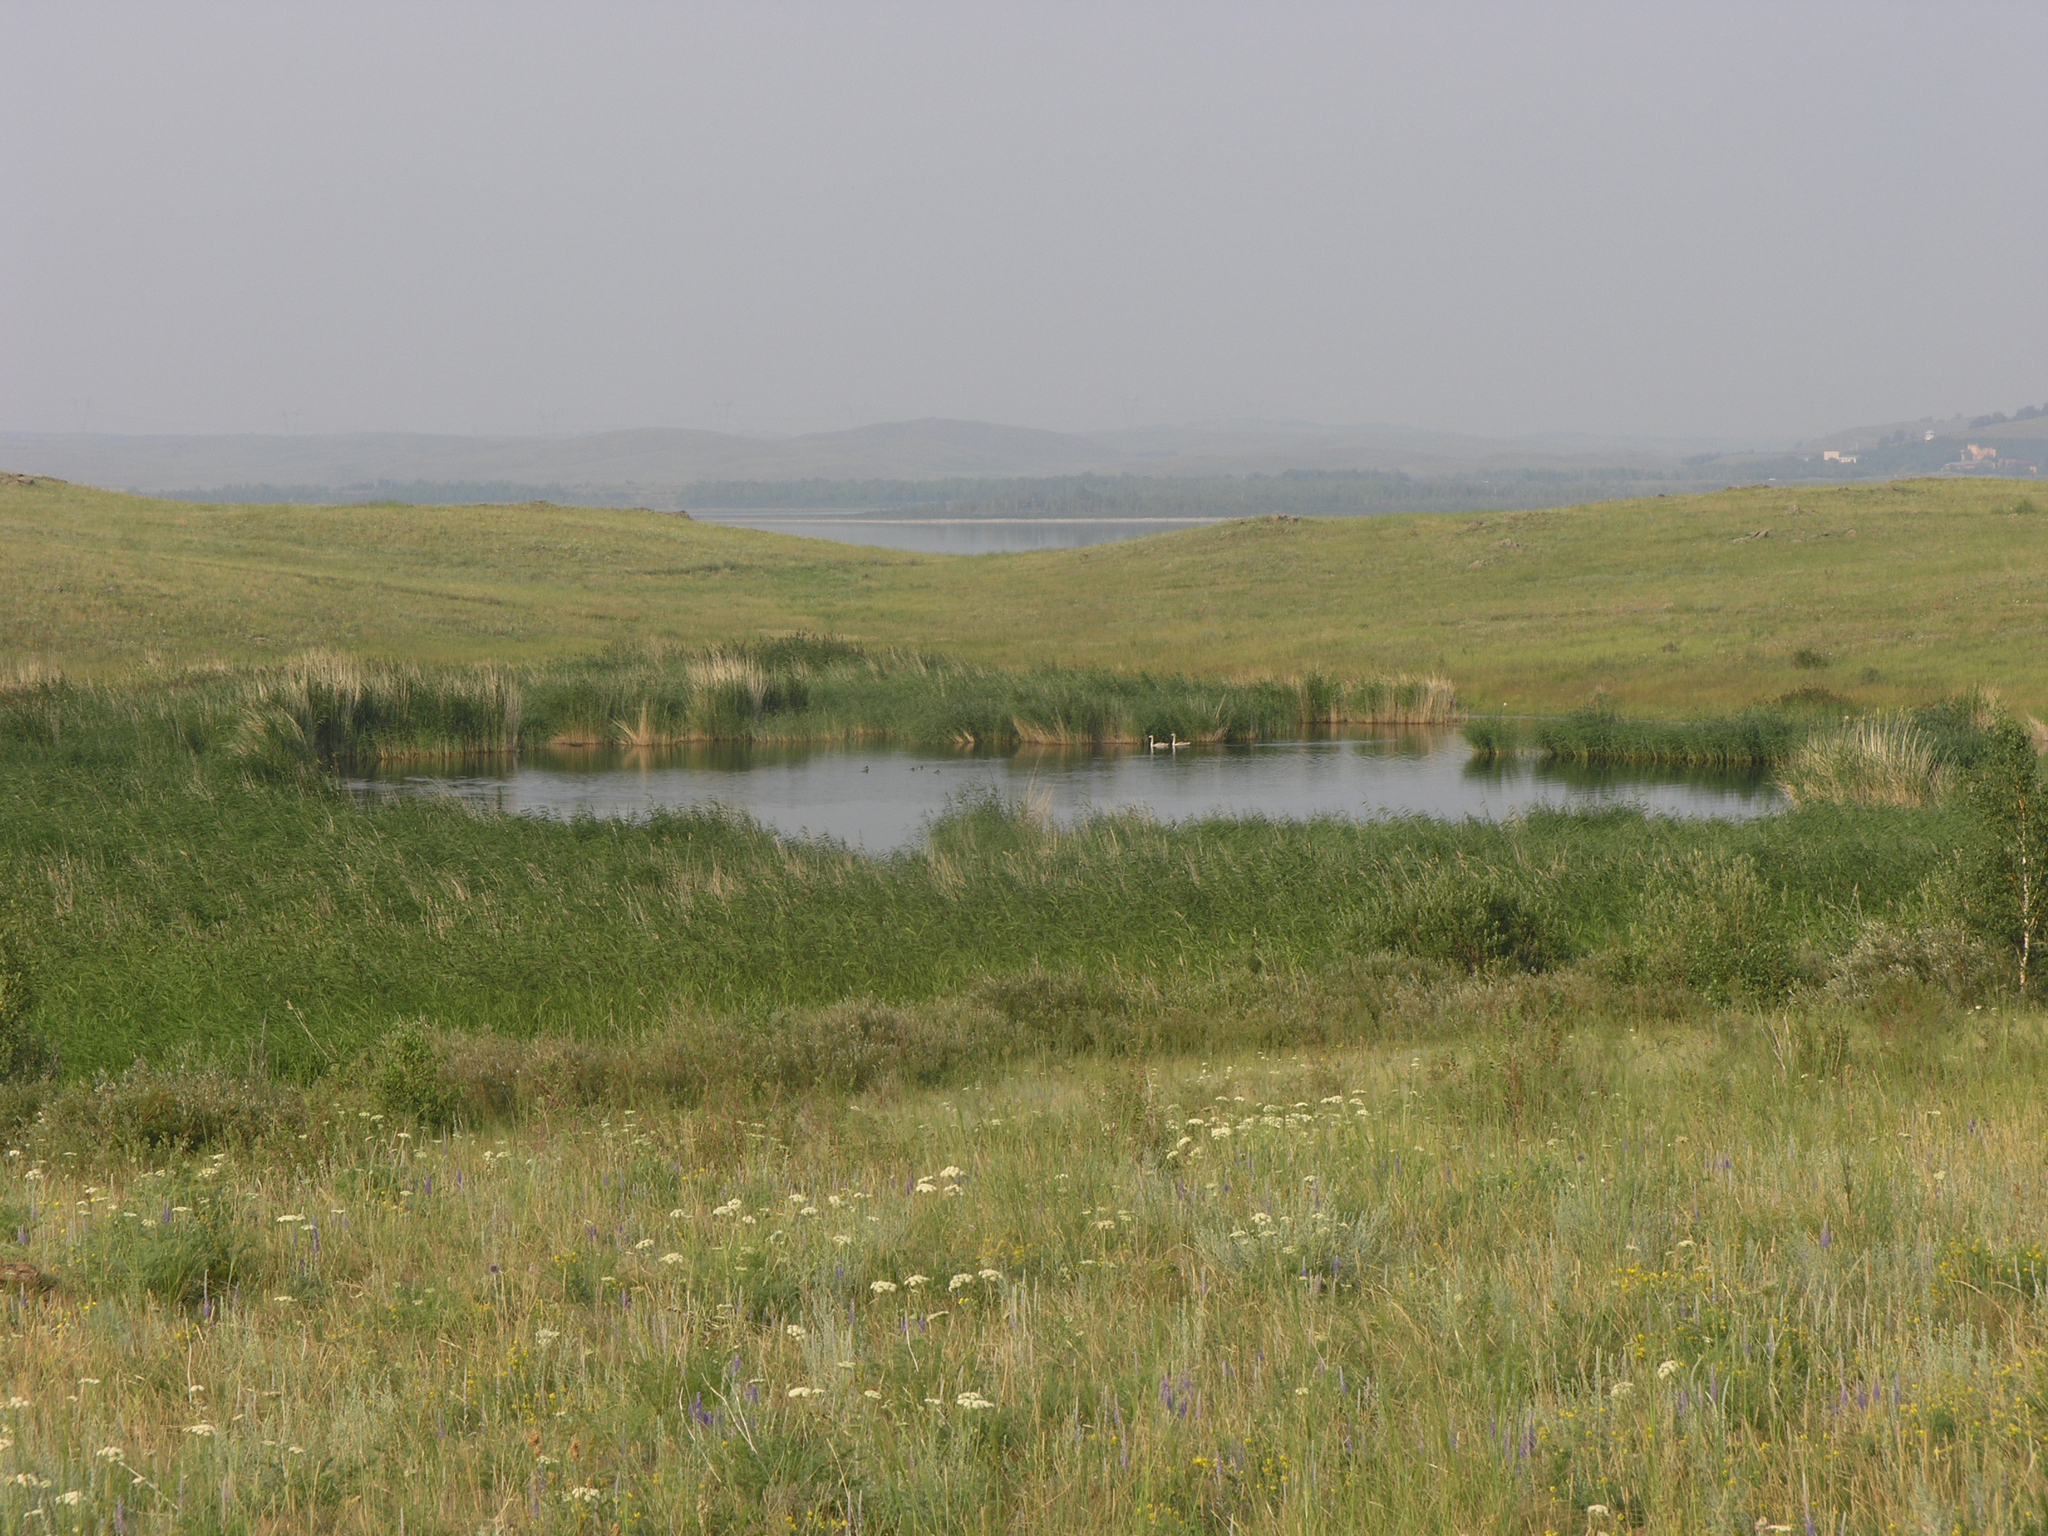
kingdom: Animalia
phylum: Chordata
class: Aves
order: Anseriformes
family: Anatidae
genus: Cygnus
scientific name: Cygnus cygnus
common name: Whooper swan
